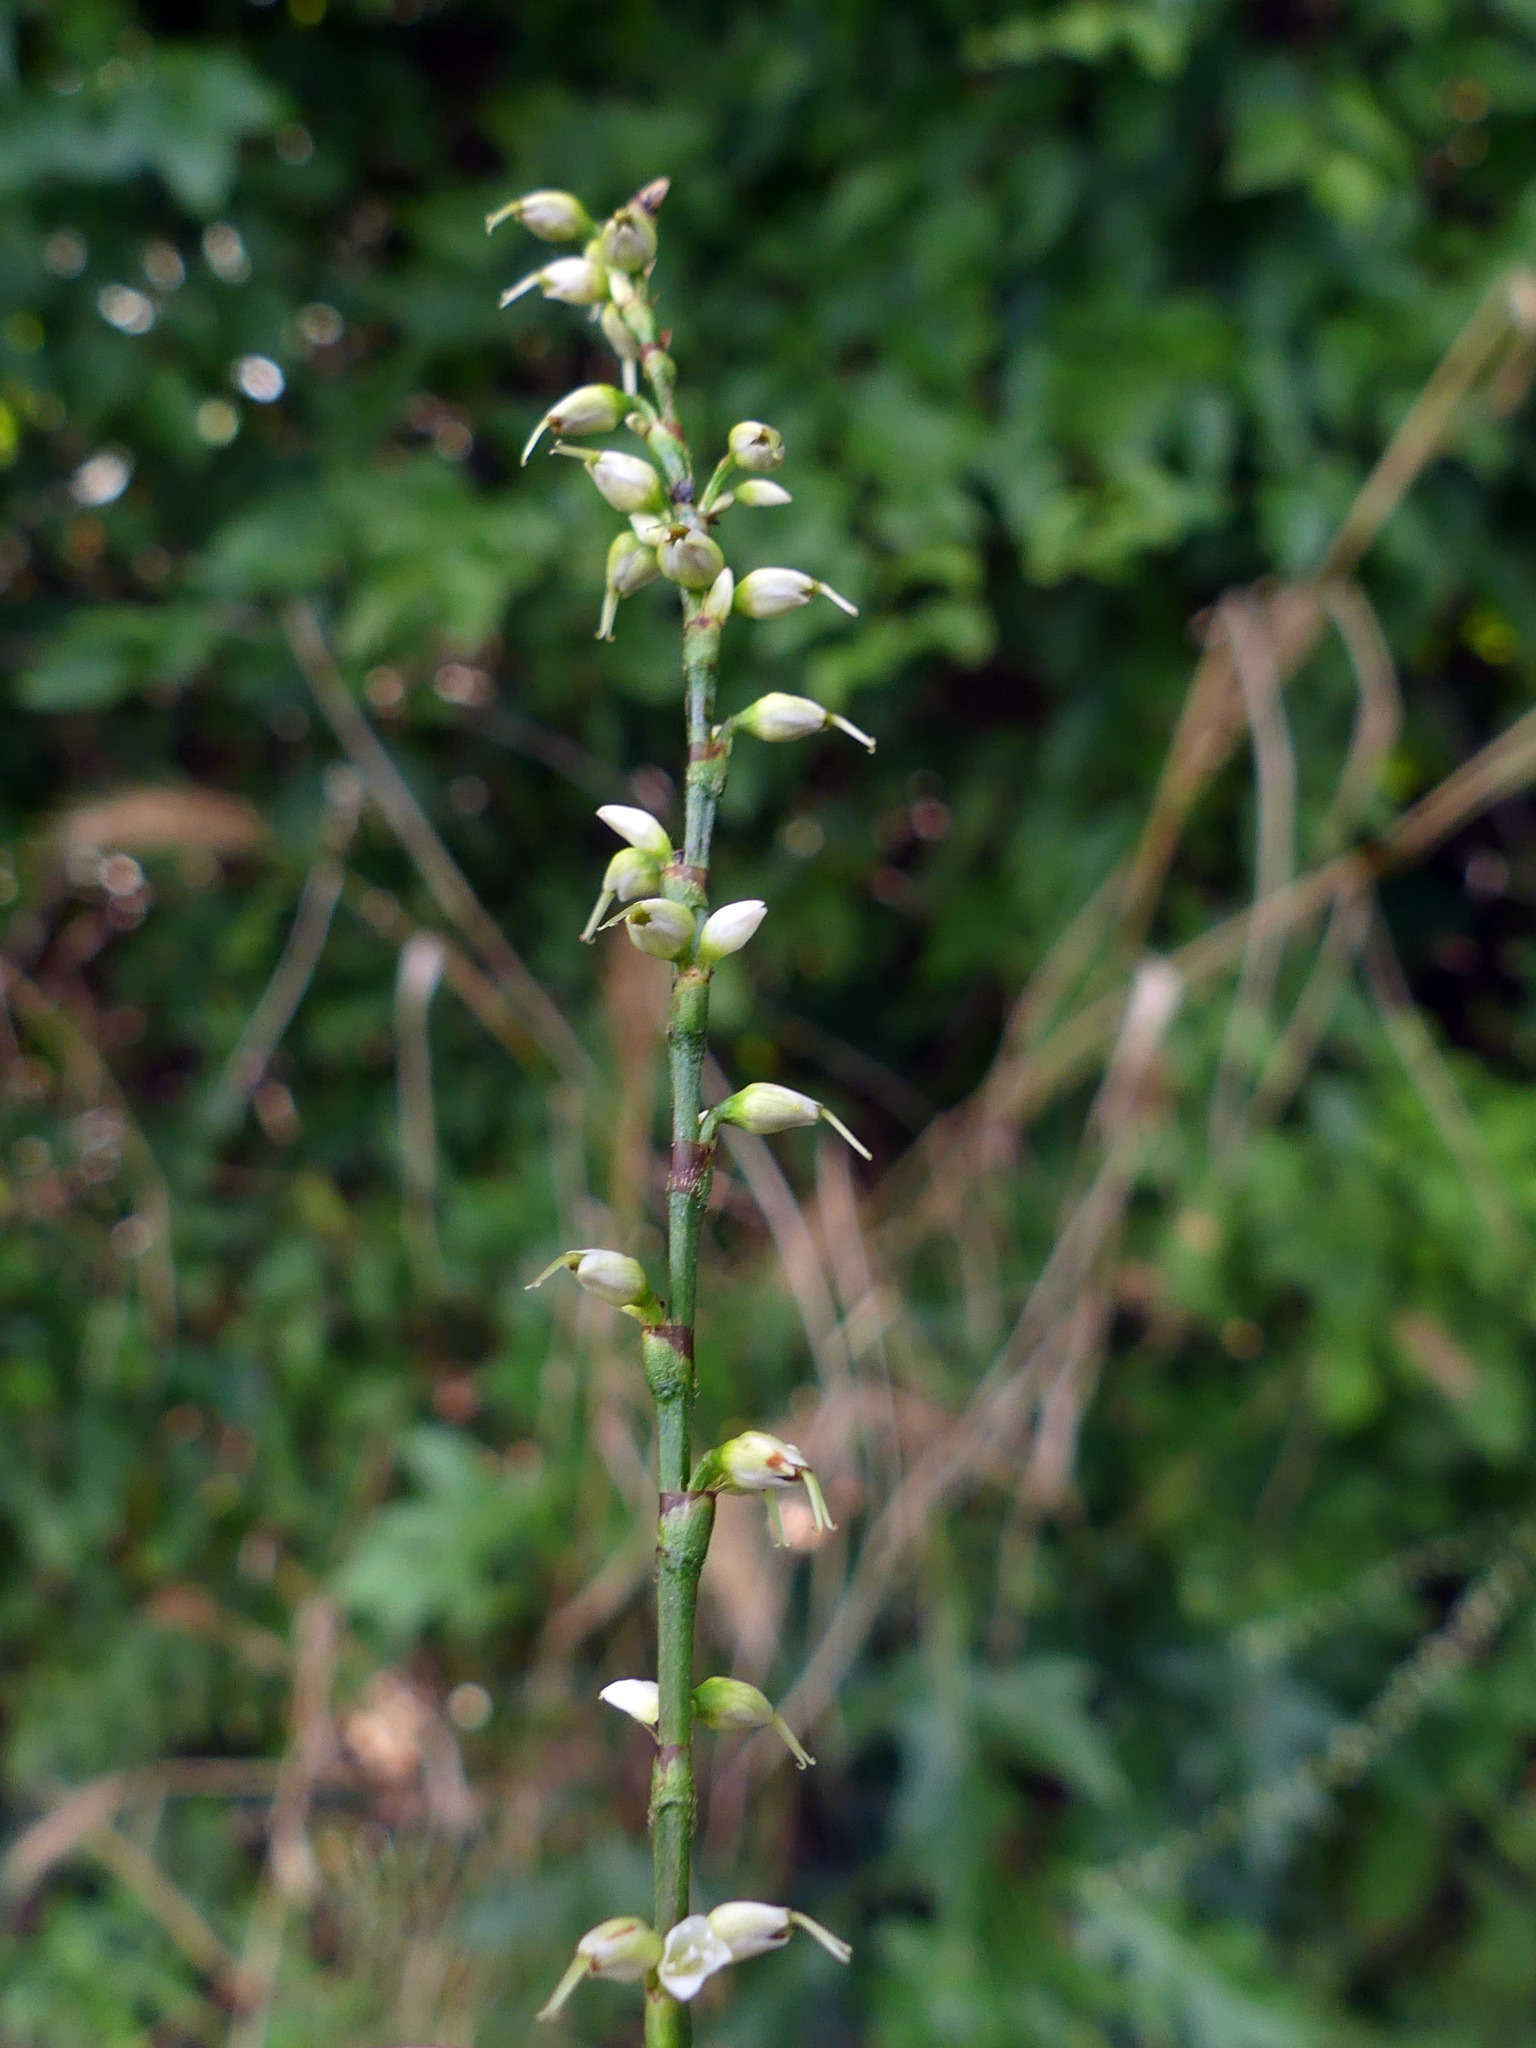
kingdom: Plantae
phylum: Tracheophyta
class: Magnoliopsida
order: Caryophyllales
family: Polygonaceae
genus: Persicaria
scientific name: Persicaria virginiana
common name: Jumpseed
